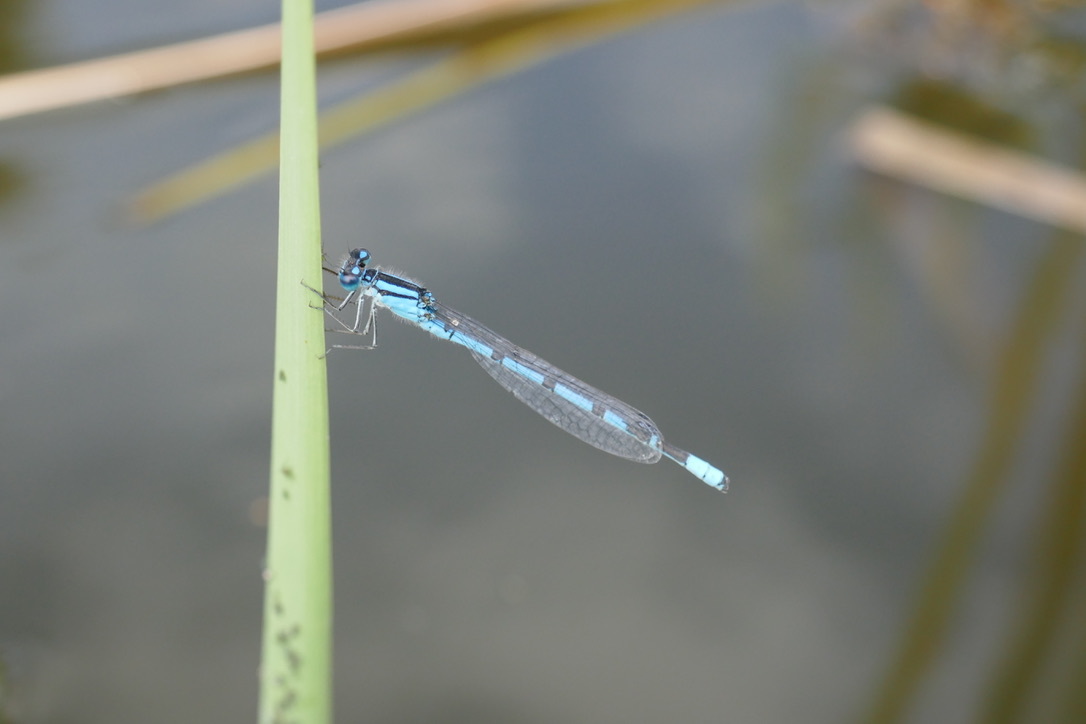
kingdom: Animalia
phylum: Arthropoda
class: Insecta
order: Odonata
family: Coenagrionidae
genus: Enallagma
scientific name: Enallagma cyathigerum
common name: Common blue damselfly
